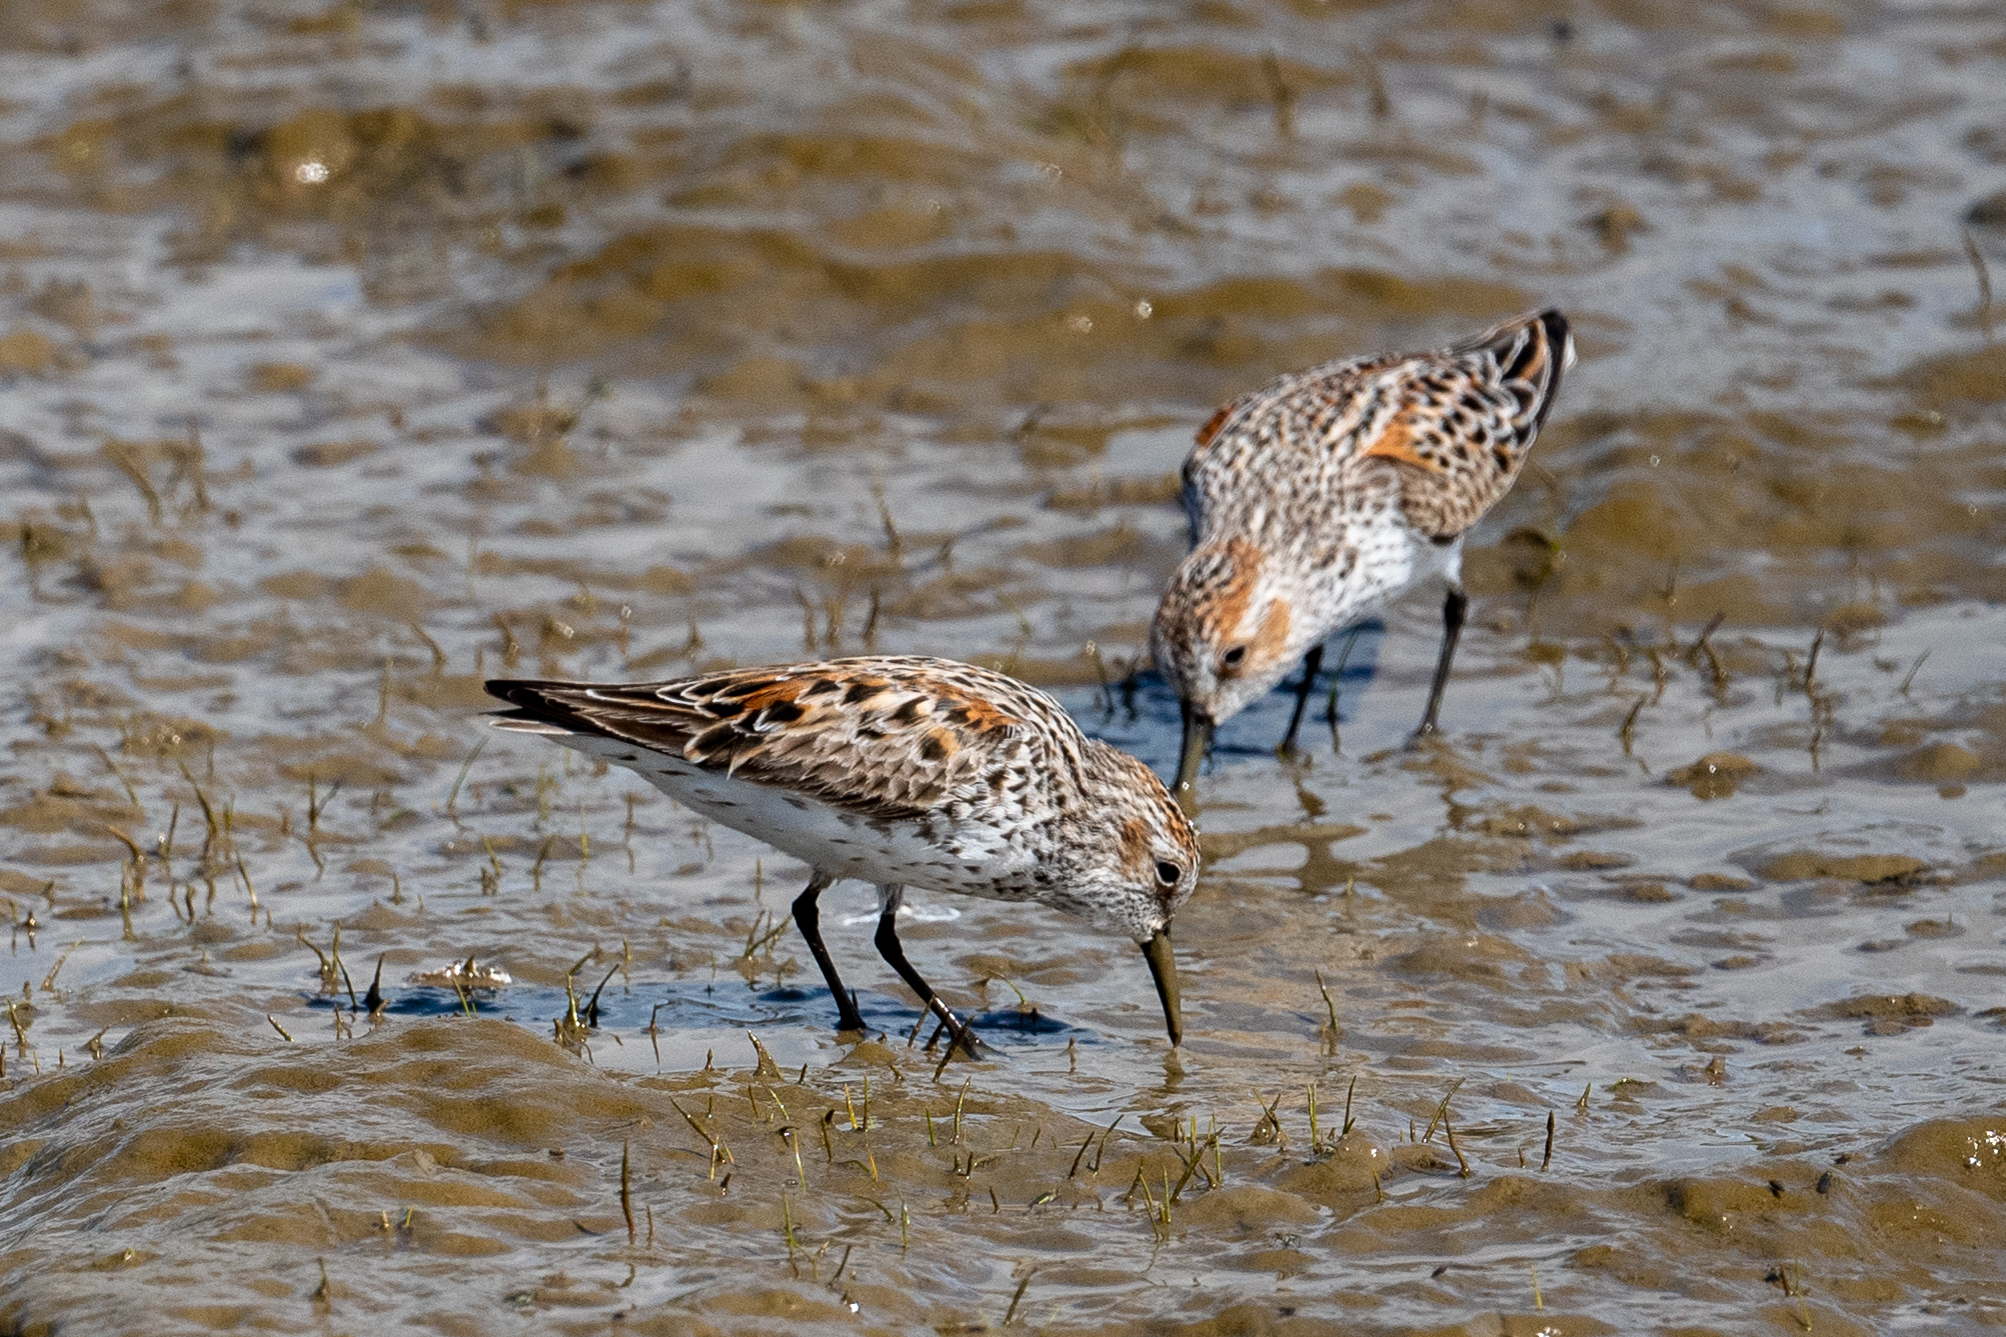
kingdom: Animalia
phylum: Chordata
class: Aves
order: Charadriiformes
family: Scolopacidae
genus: Calidris
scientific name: Calidris mauri
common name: Western sandpiper
